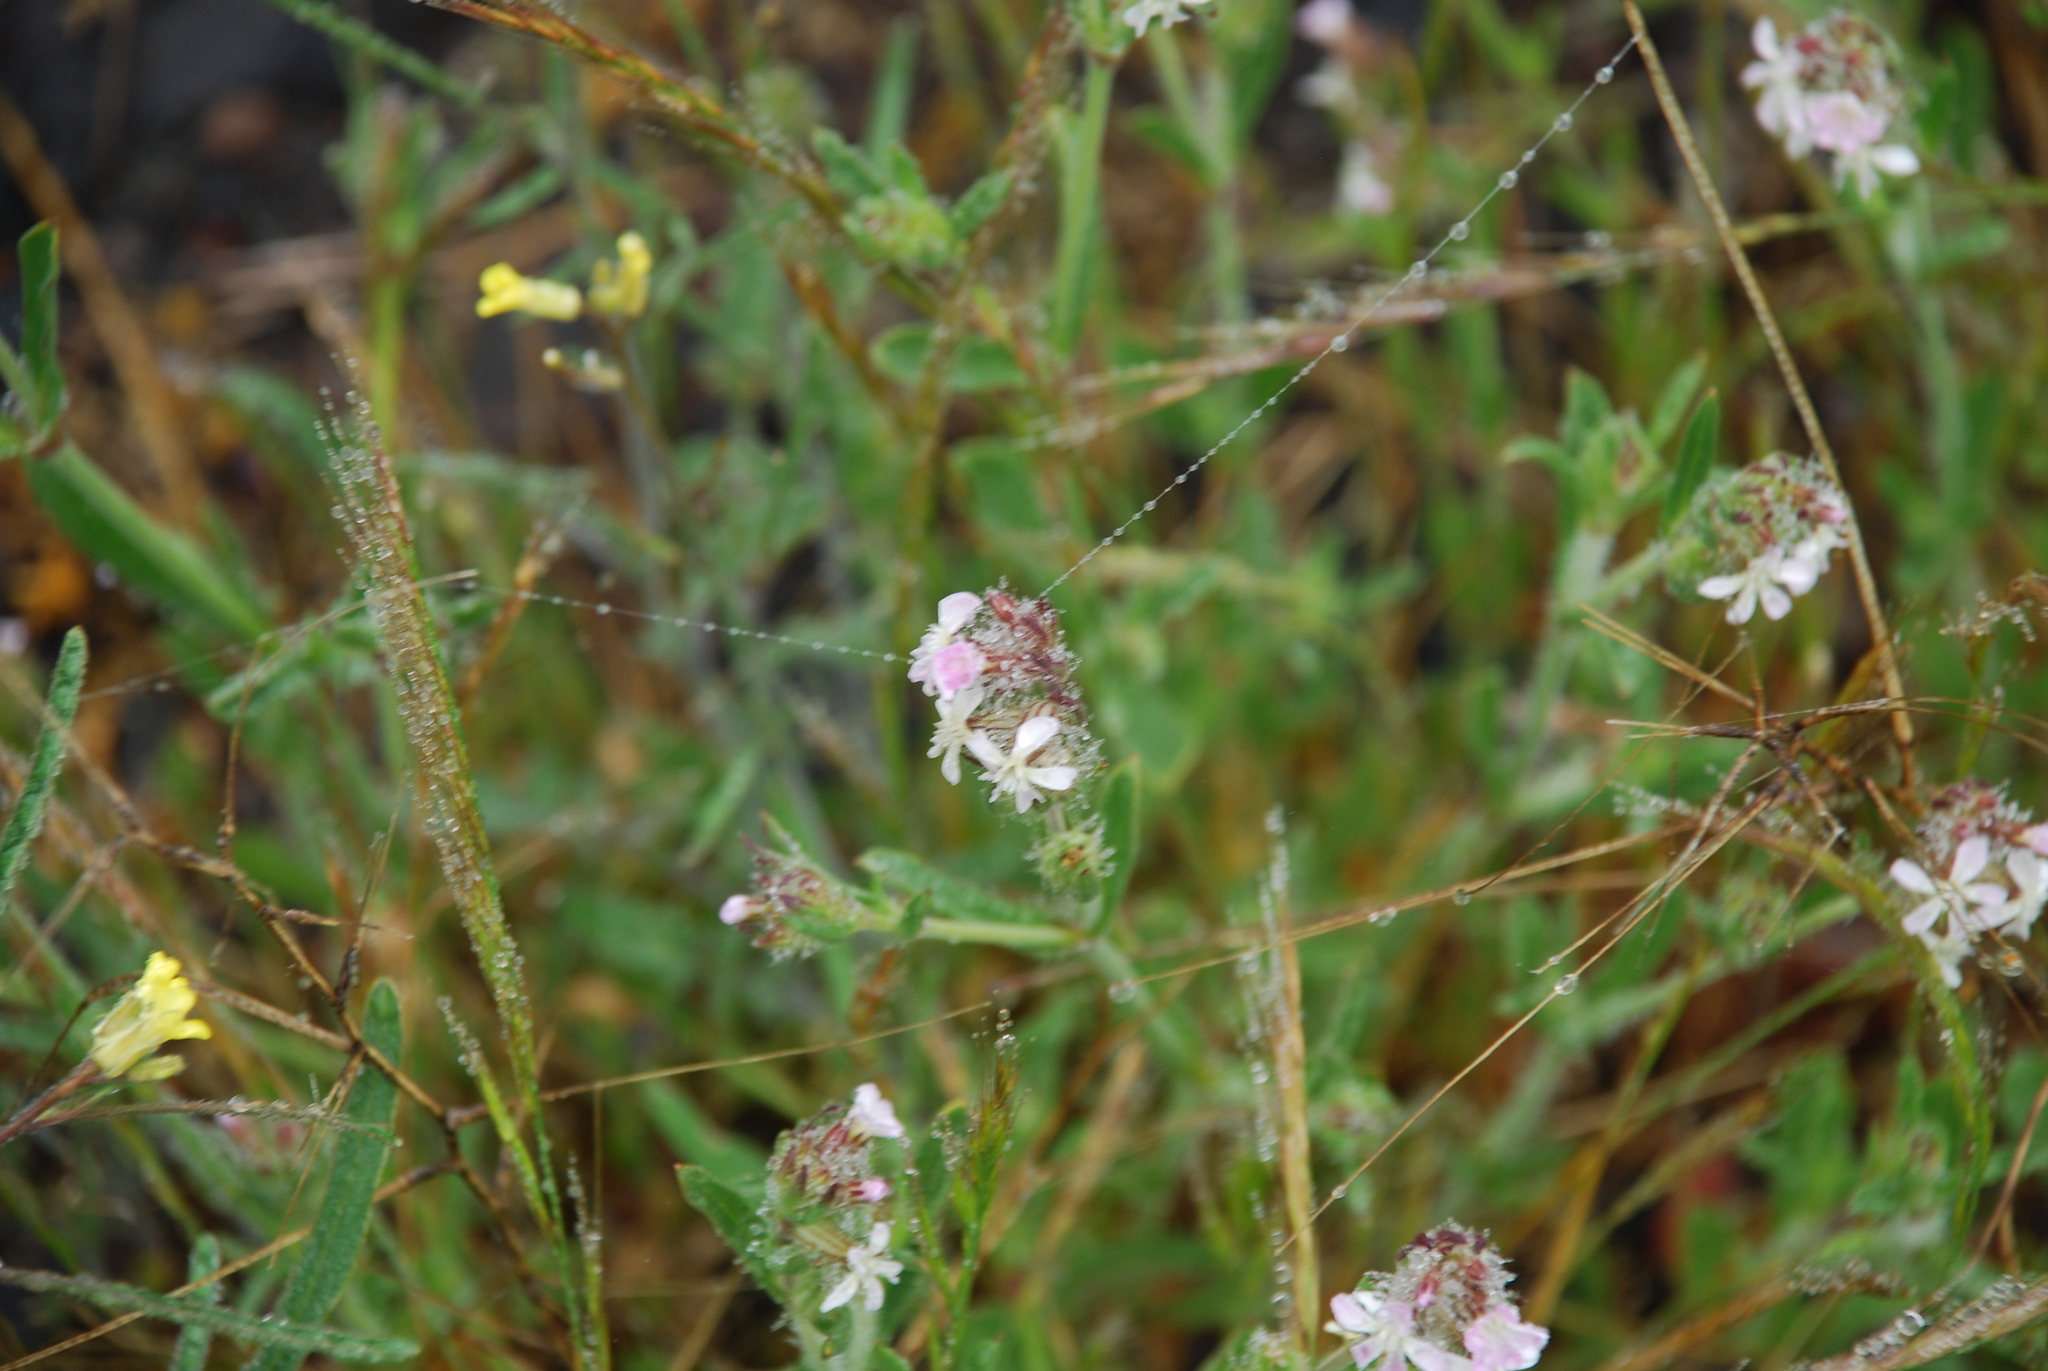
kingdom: Plantae
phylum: Tracheophyta
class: Magnoliopsida
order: Caryophyllales
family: Caryophyllaceae
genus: Silene
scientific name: Silene gallica
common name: Small-flowered catchfly
